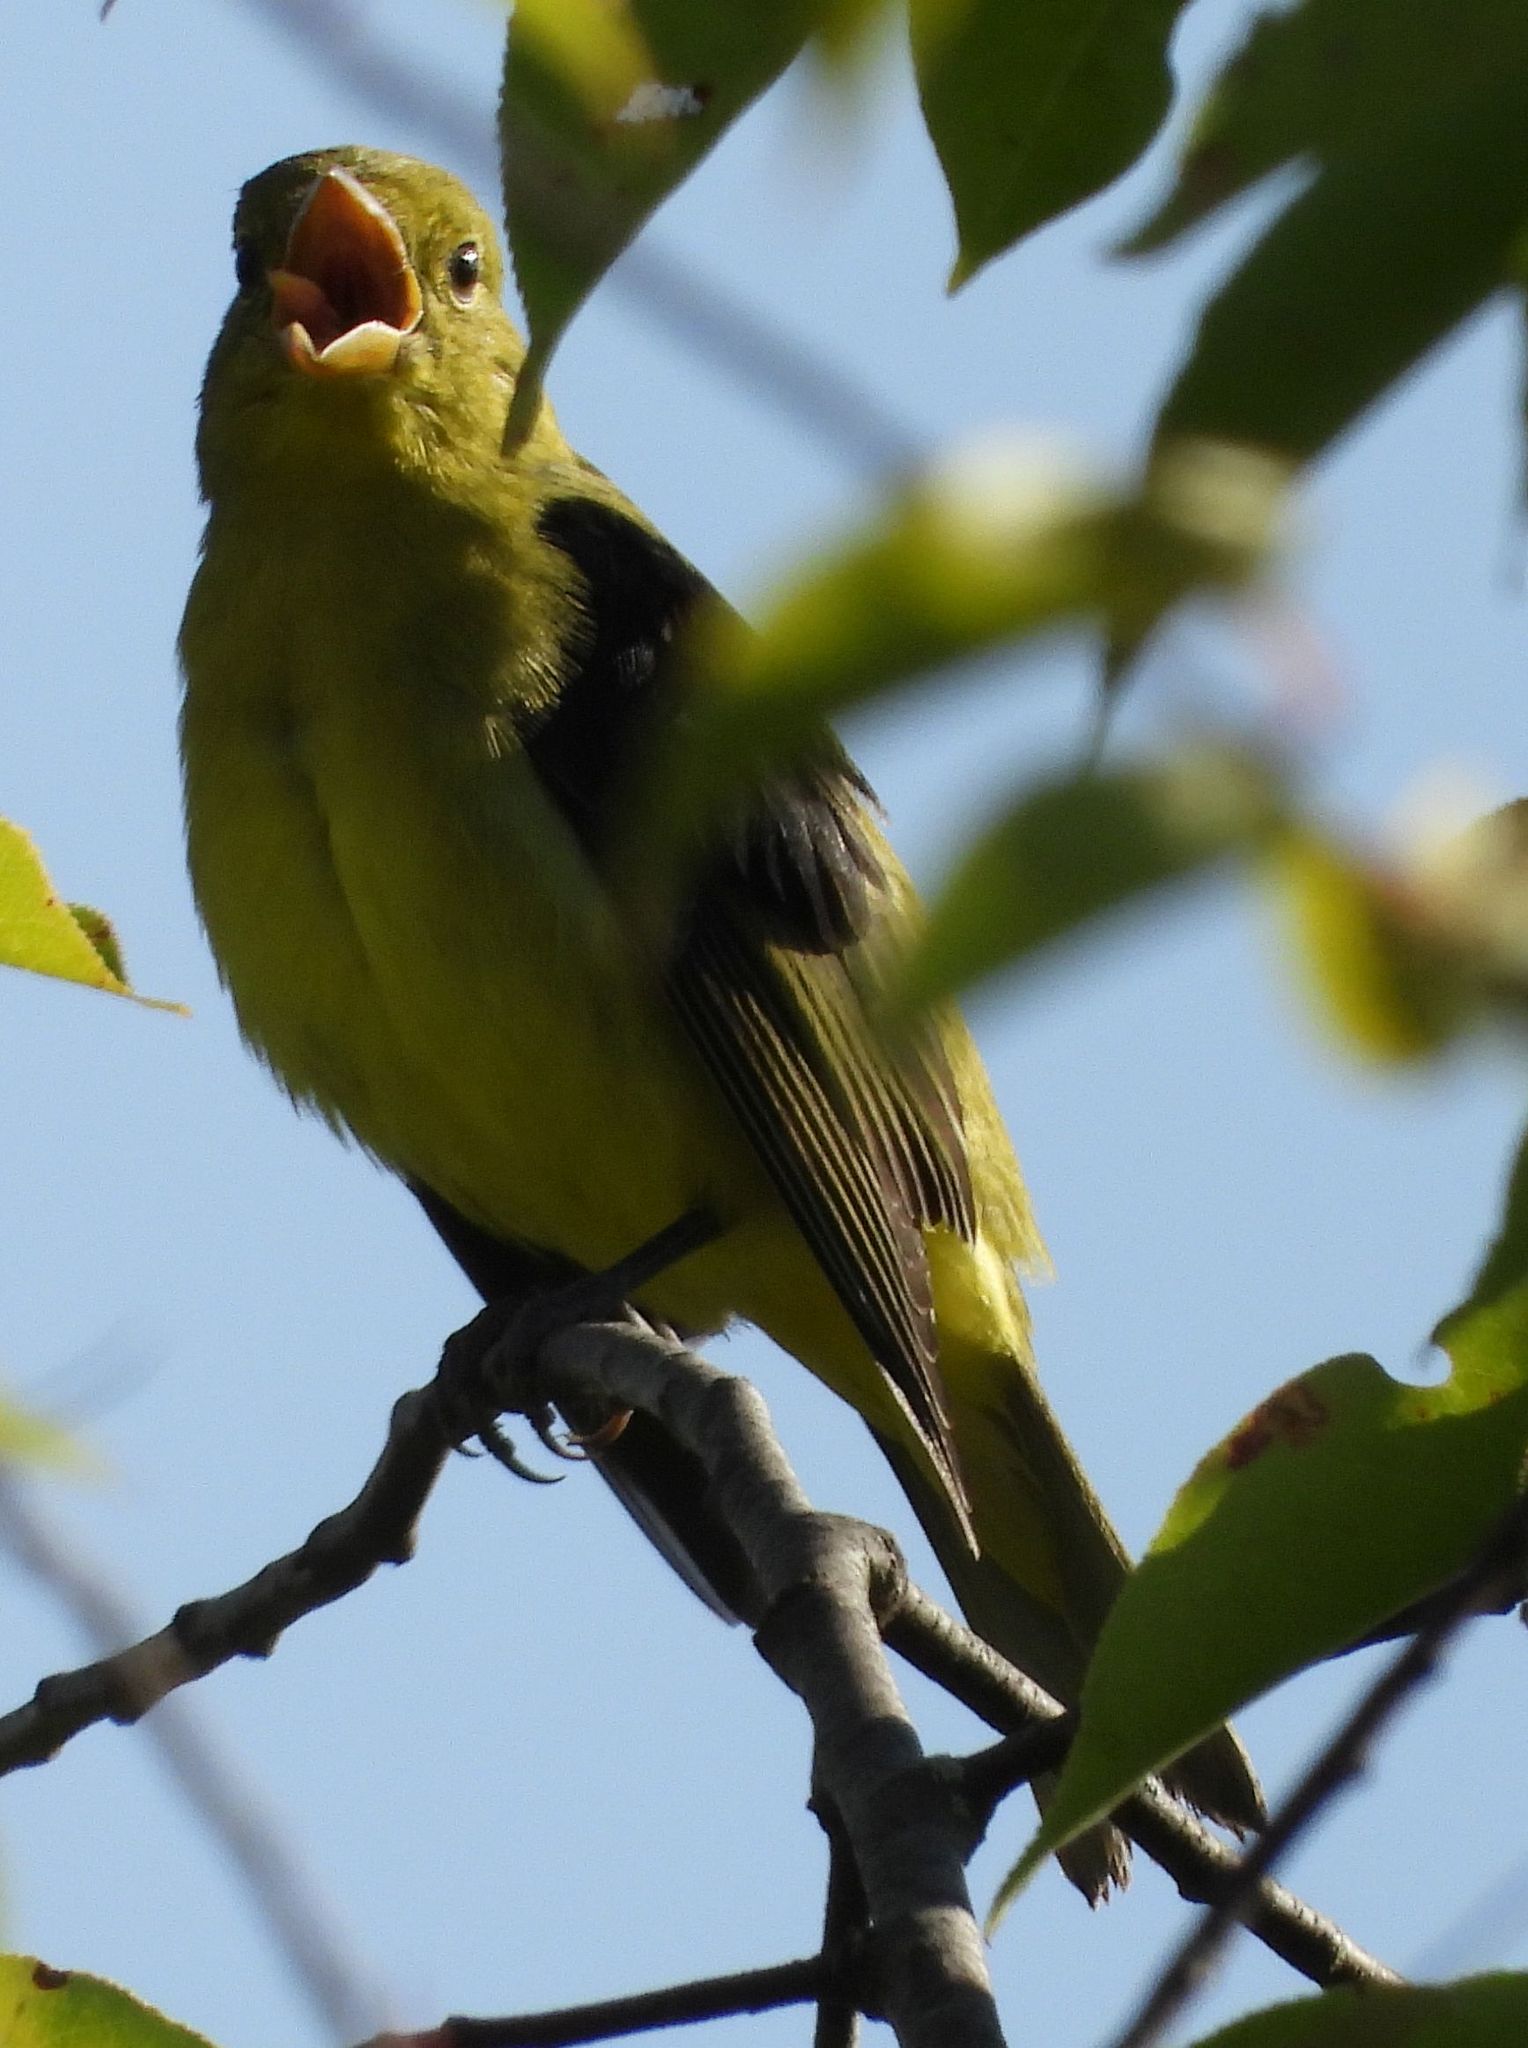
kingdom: Animalia
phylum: Chordata
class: Aves
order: Passeriformes
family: Cardinalidae
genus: Piranga
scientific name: Piranga olivacea
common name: Scarlet tanager
